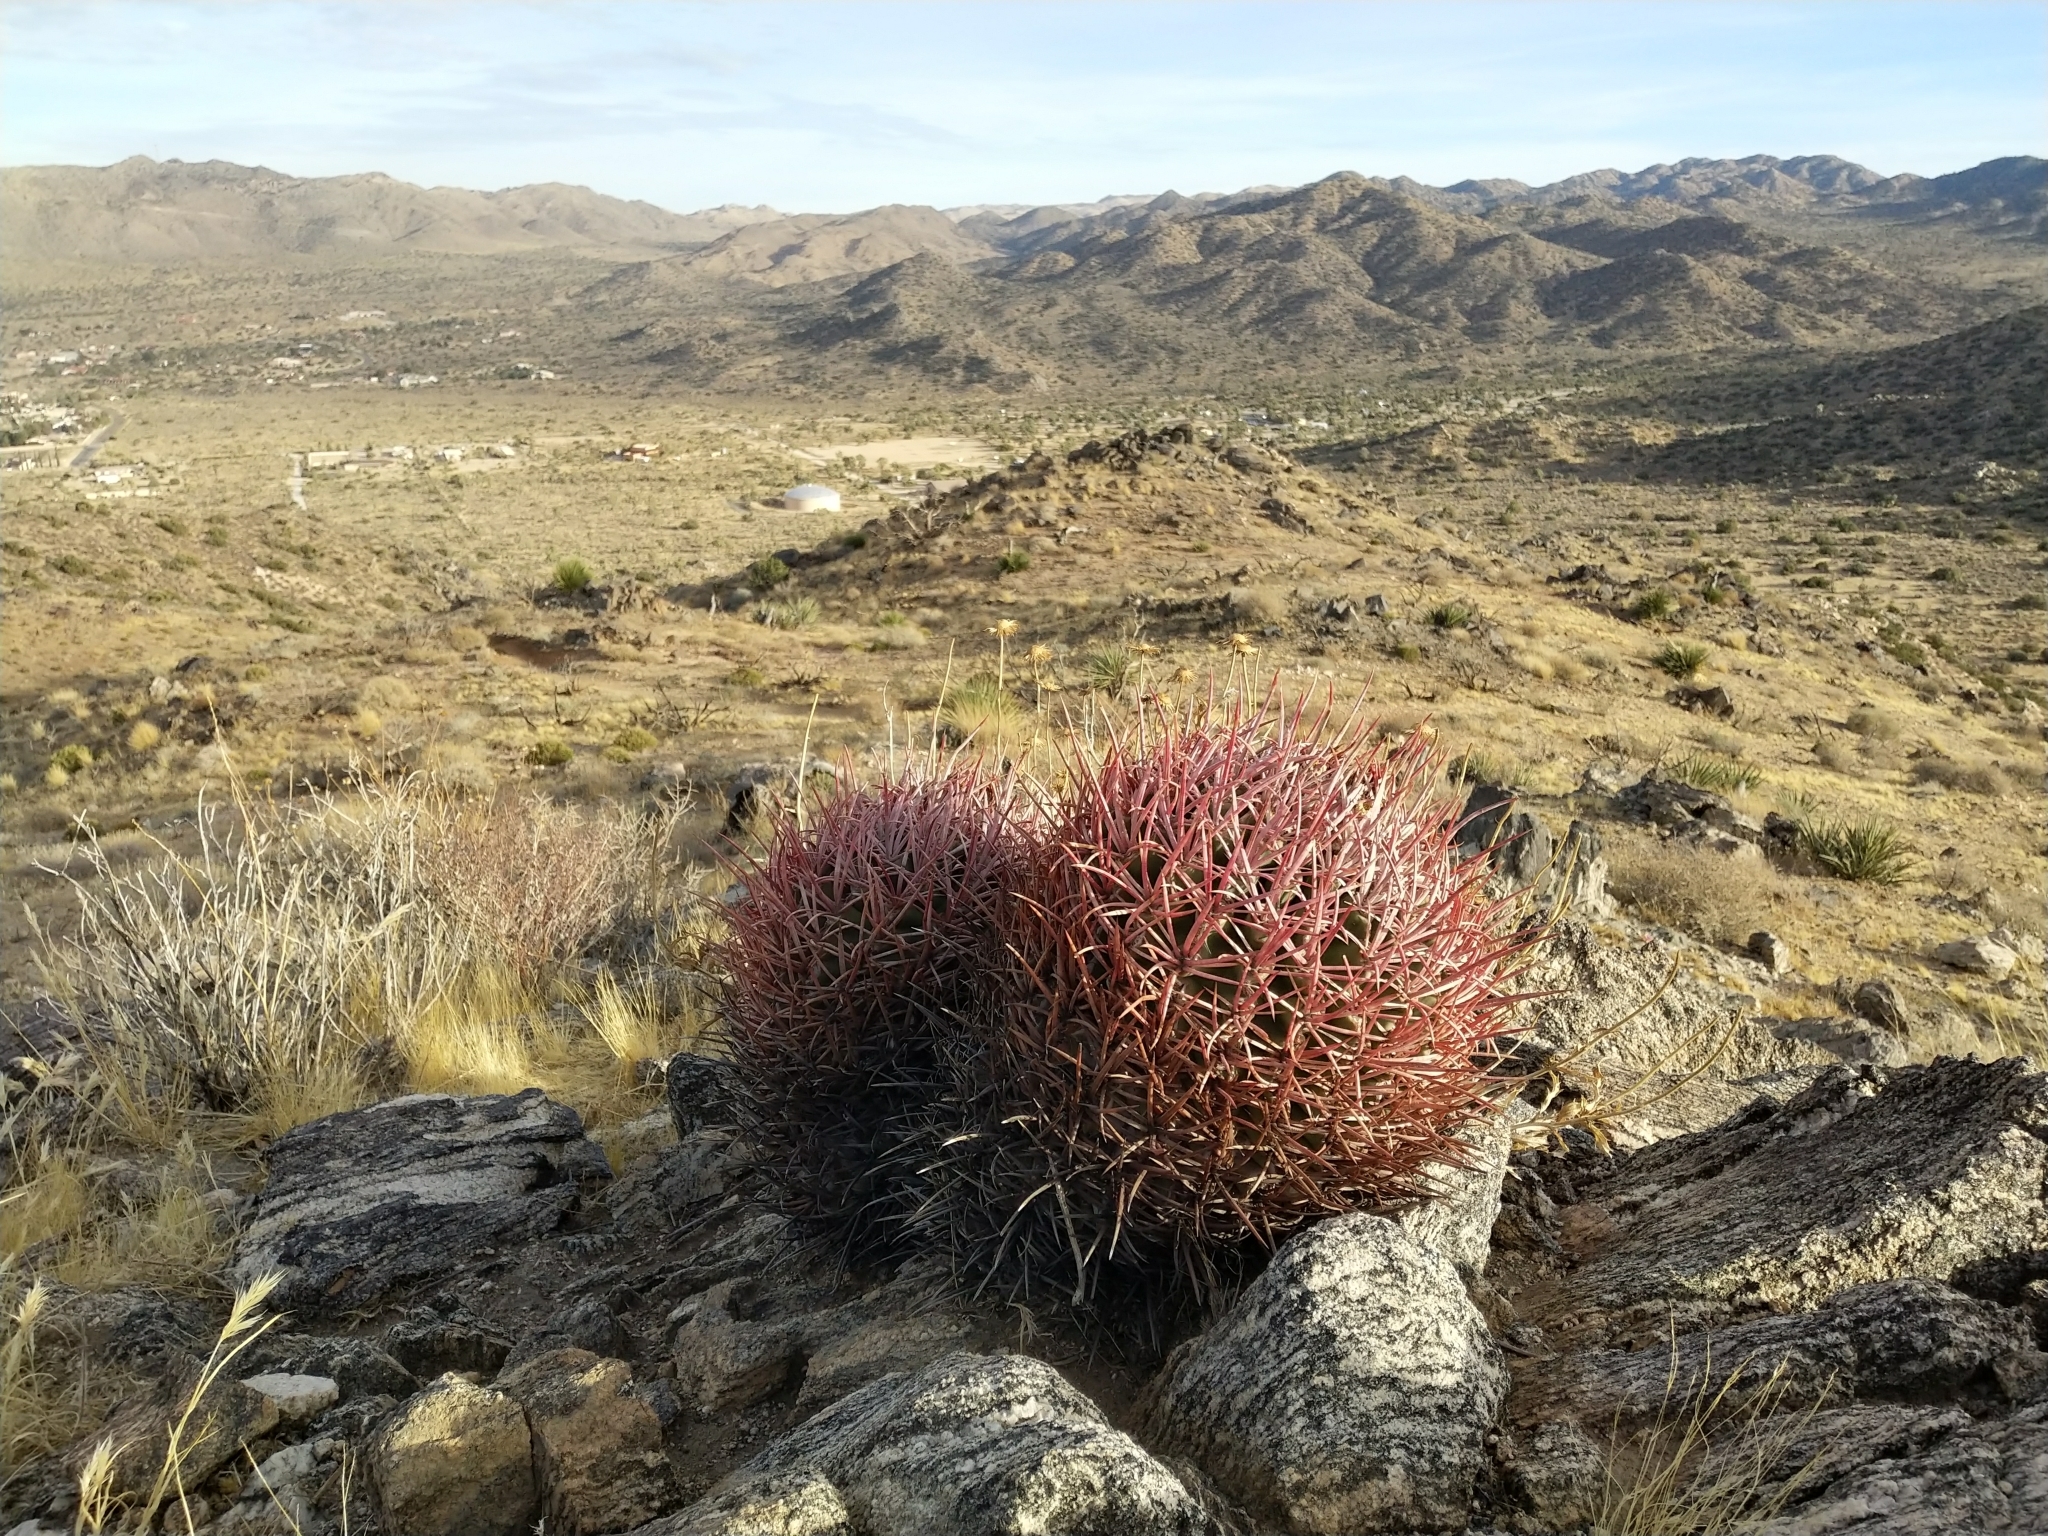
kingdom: Plantae
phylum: Tracheophyta
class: Magnoliopsida
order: Caryophyllales
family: Cactaceae
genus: Ferocactus
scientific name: Ferocactus cylindraceus
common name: California barrel cactus
